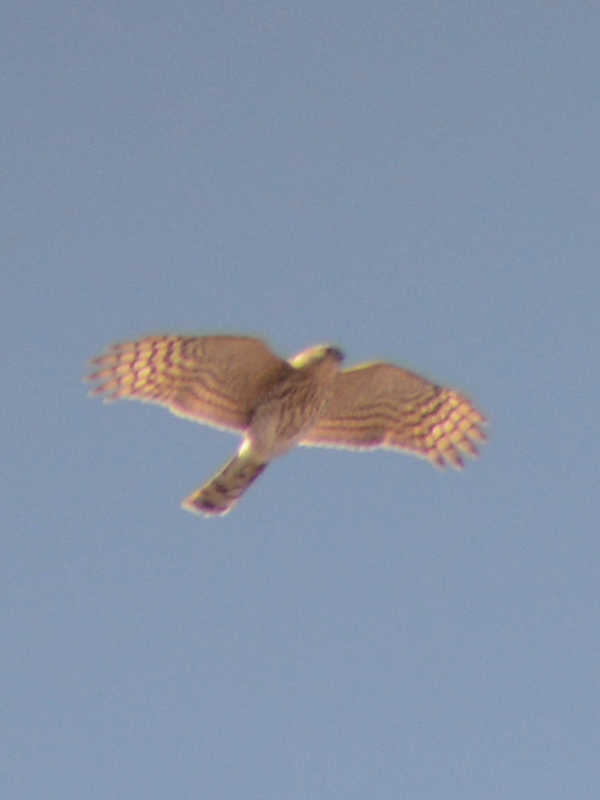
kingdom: Animalia
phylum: Chordata
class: Aves
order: Accipitriformes
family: Accipitridae
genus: Accipiter
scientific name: Accipiter striatus
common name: Sharp-shinned hawk
